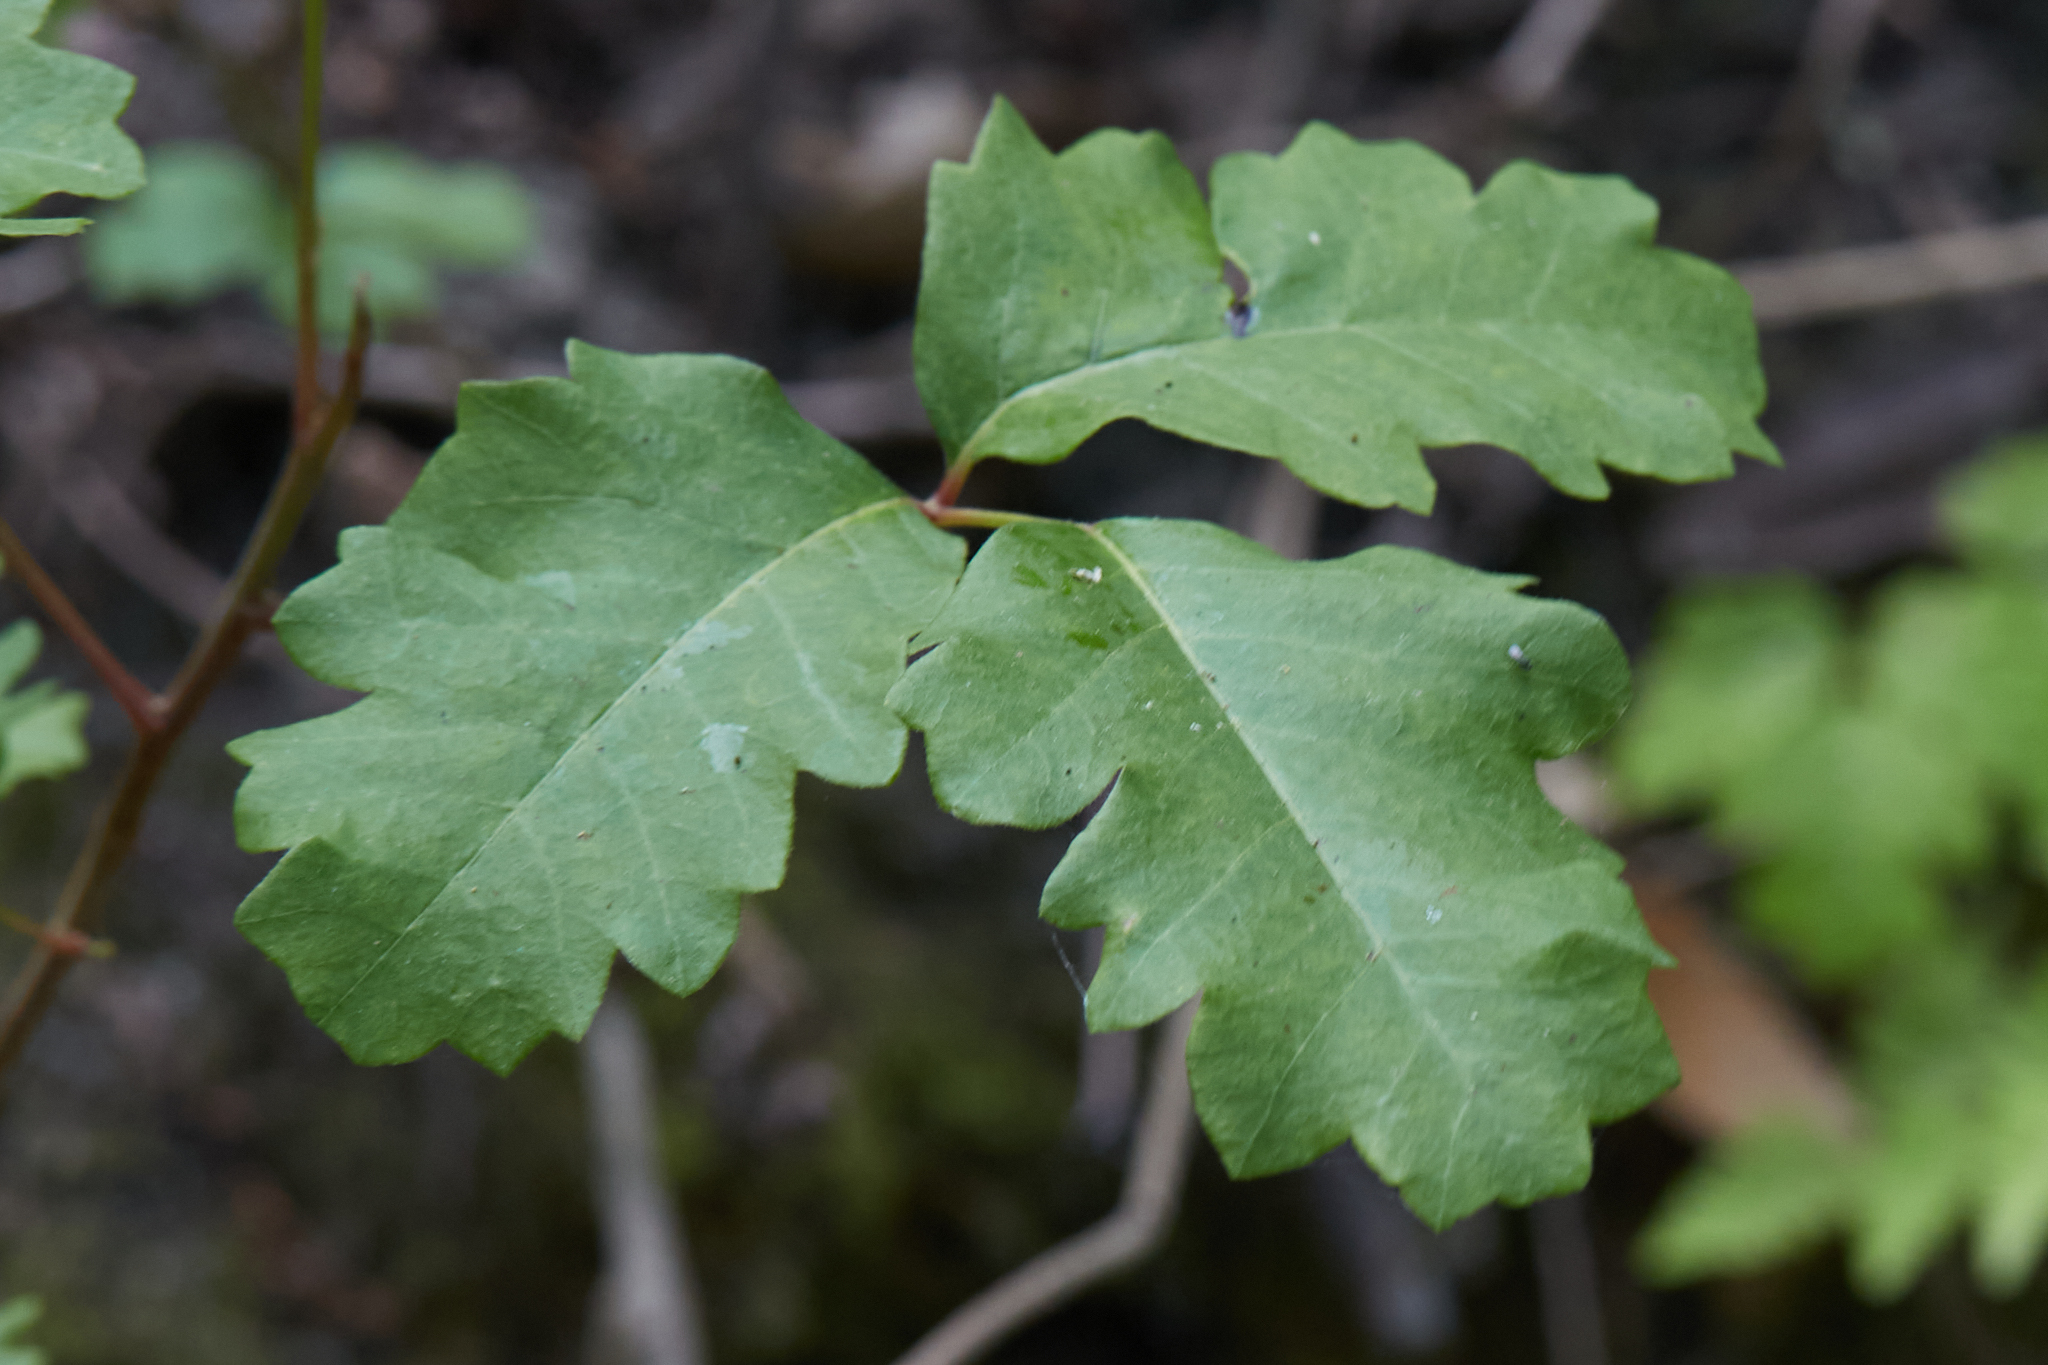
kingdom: Plantae
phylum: Tracheophyta
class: Magnoliopsida
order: Sapindales
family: Anacardiaceae
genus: Toxicodendron
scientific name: Toxicodendron diversilobum
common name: Pacific poison-oak
